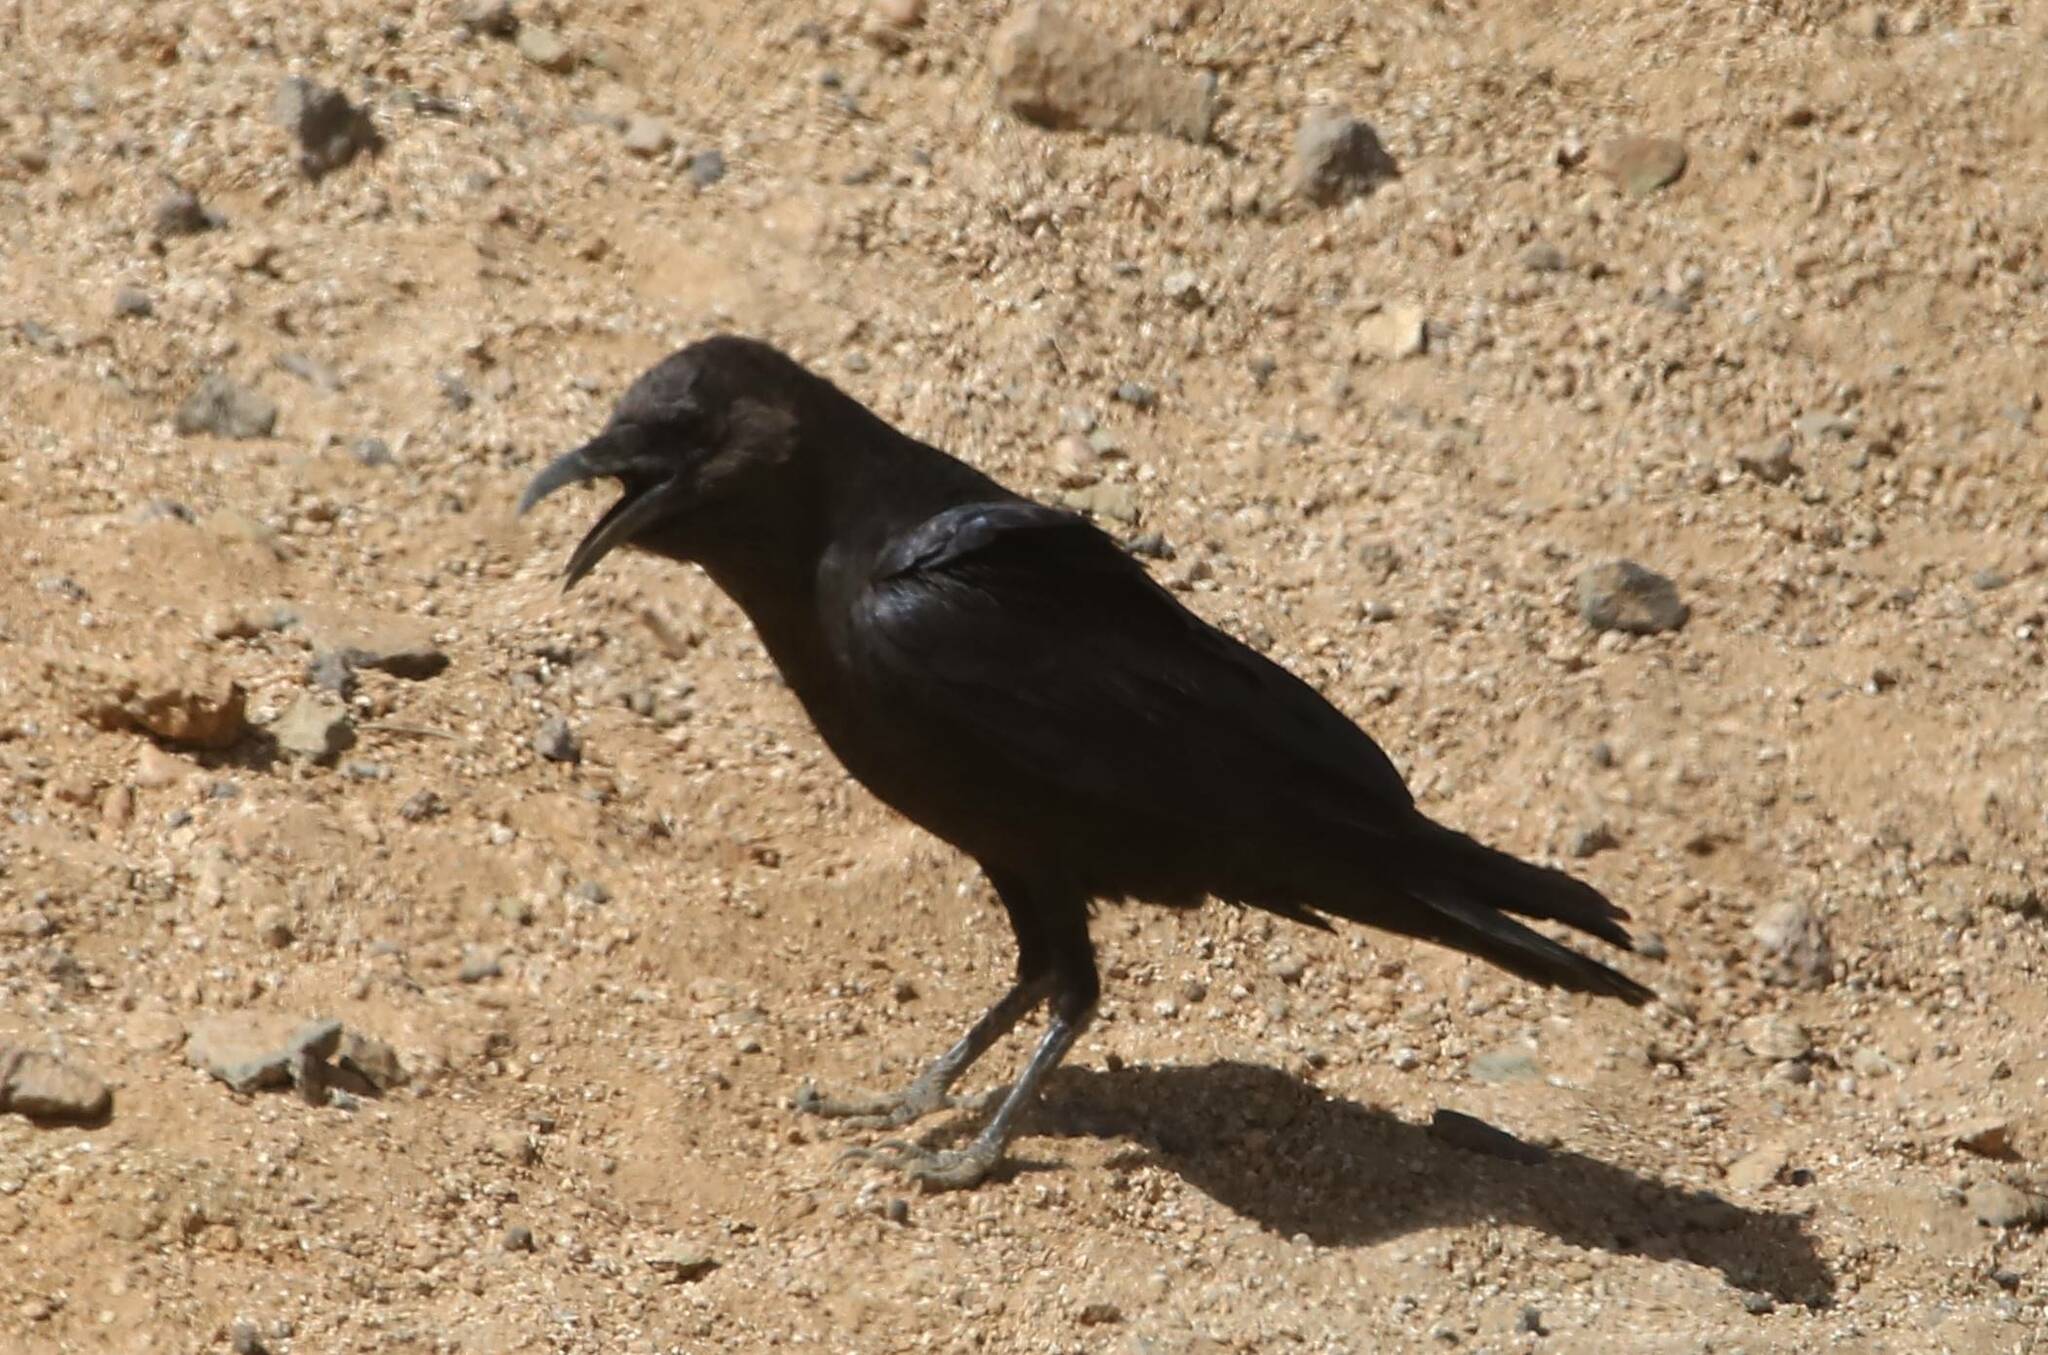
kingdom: Animalia
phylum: Chordata
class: Aves
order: Passeriformes
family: Corvidae
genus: Corvus
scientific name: Corvus ruficollis
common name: Brown-necked raven
